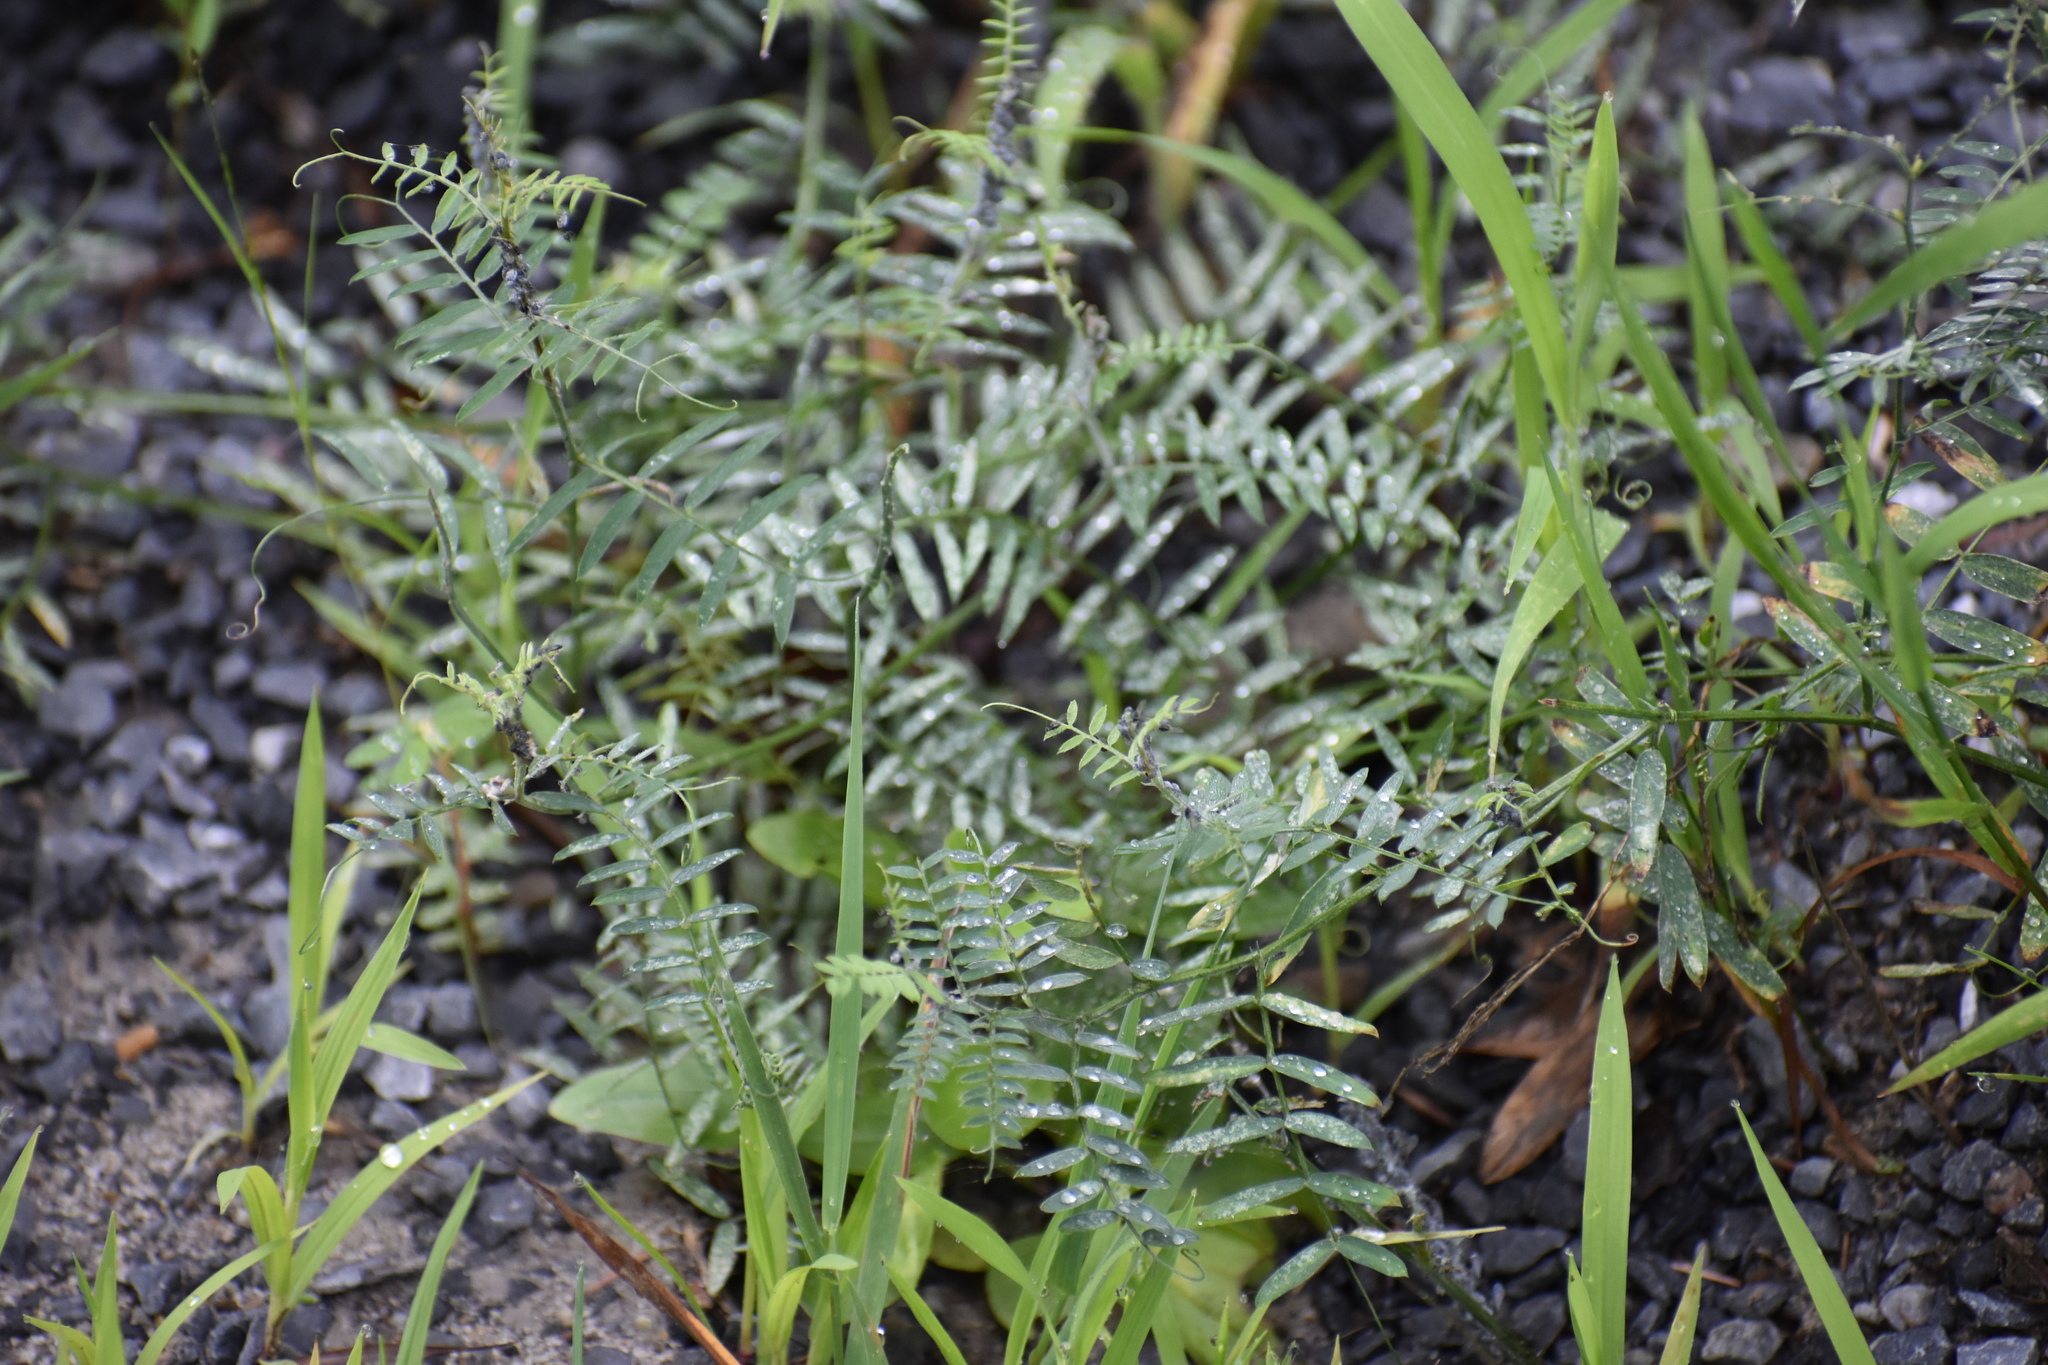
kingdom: Plantae
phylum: Tracheophyta
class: Magnoliopsida
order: Fabales
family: Fabaceae
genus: Vicia
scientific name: Vicia cracca
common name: Bird vetch
